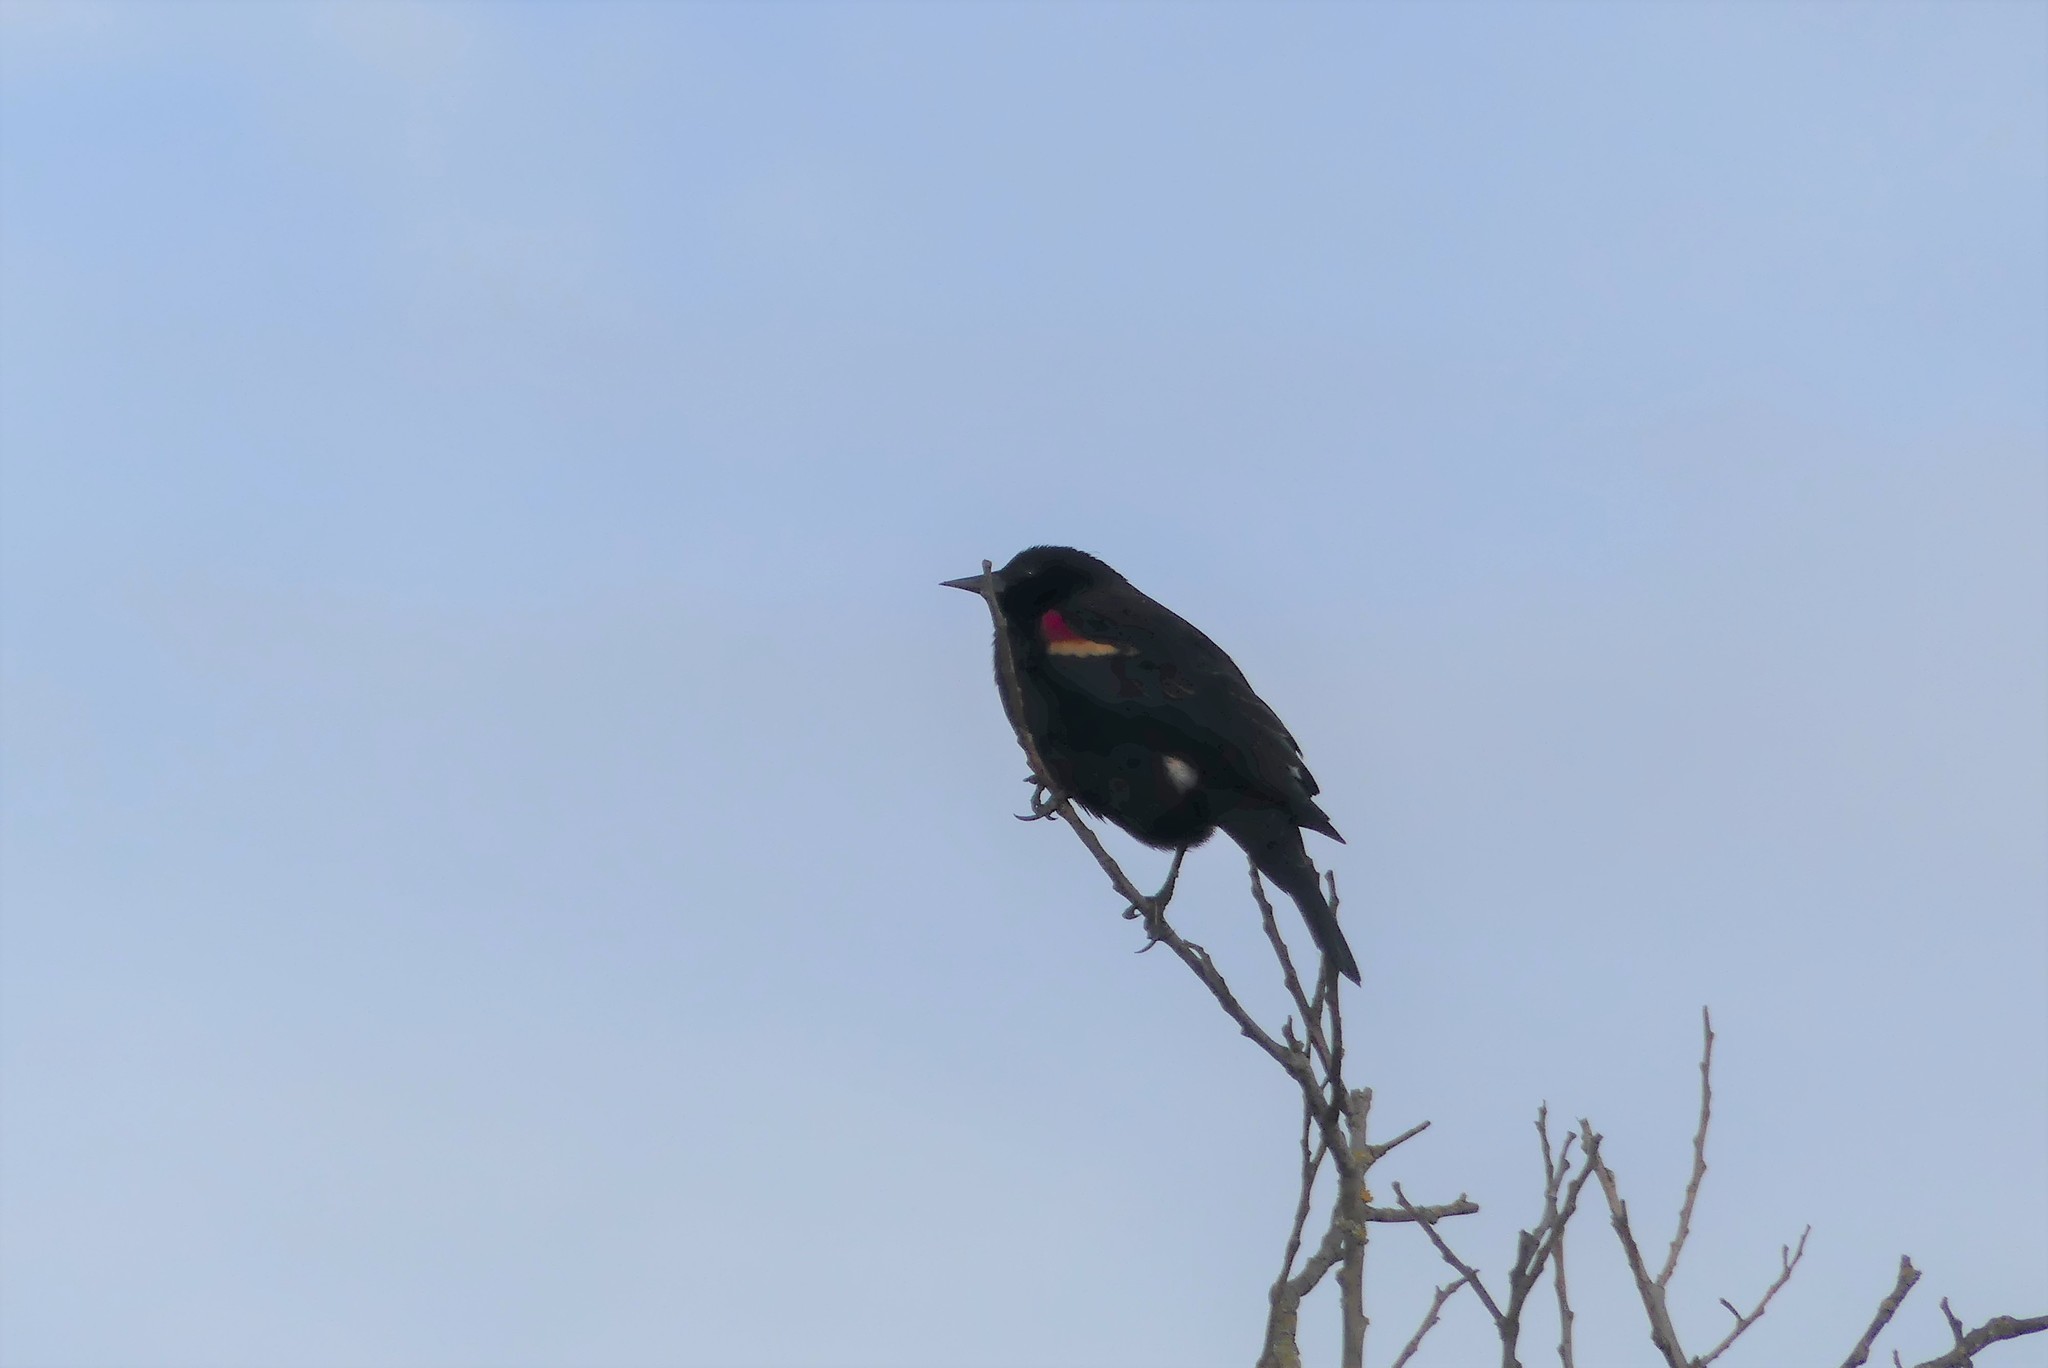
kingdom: Animalia
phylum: Chordata
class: Aves
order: Passeriformes
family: Icteridae
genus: Agelaius
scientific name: Agelaius phoeniceus
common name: Red-winged blackbird
